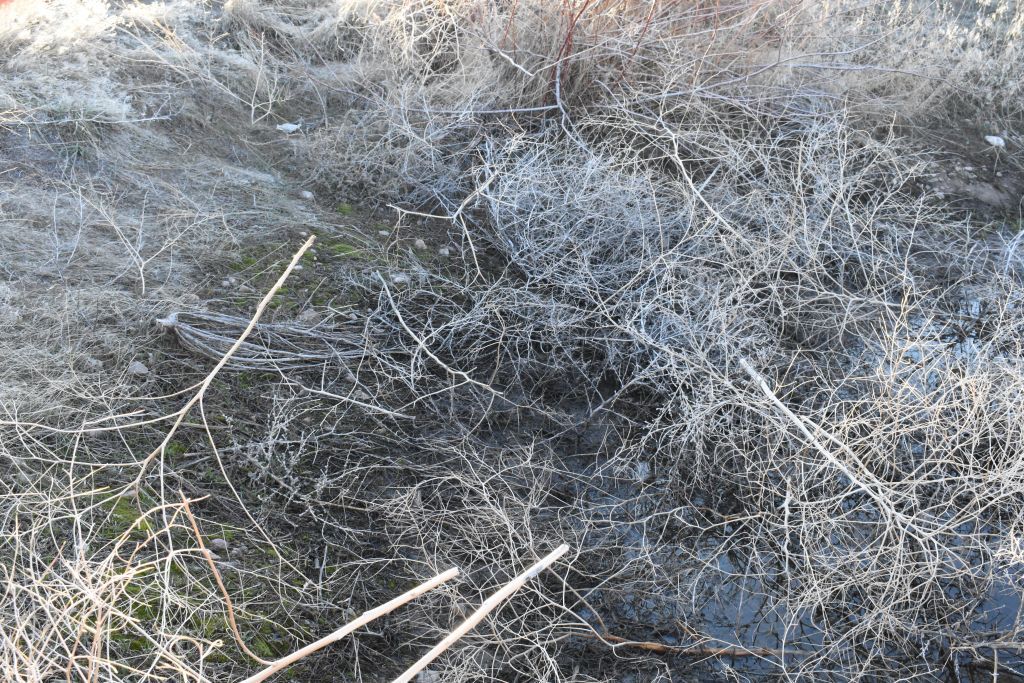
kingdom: Plantae
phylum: Bryophyta
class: Bryopsida
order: Funariales
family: Funariaceae
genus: Funaria
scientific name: Funaria hygrometrica
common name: Common cord moss
